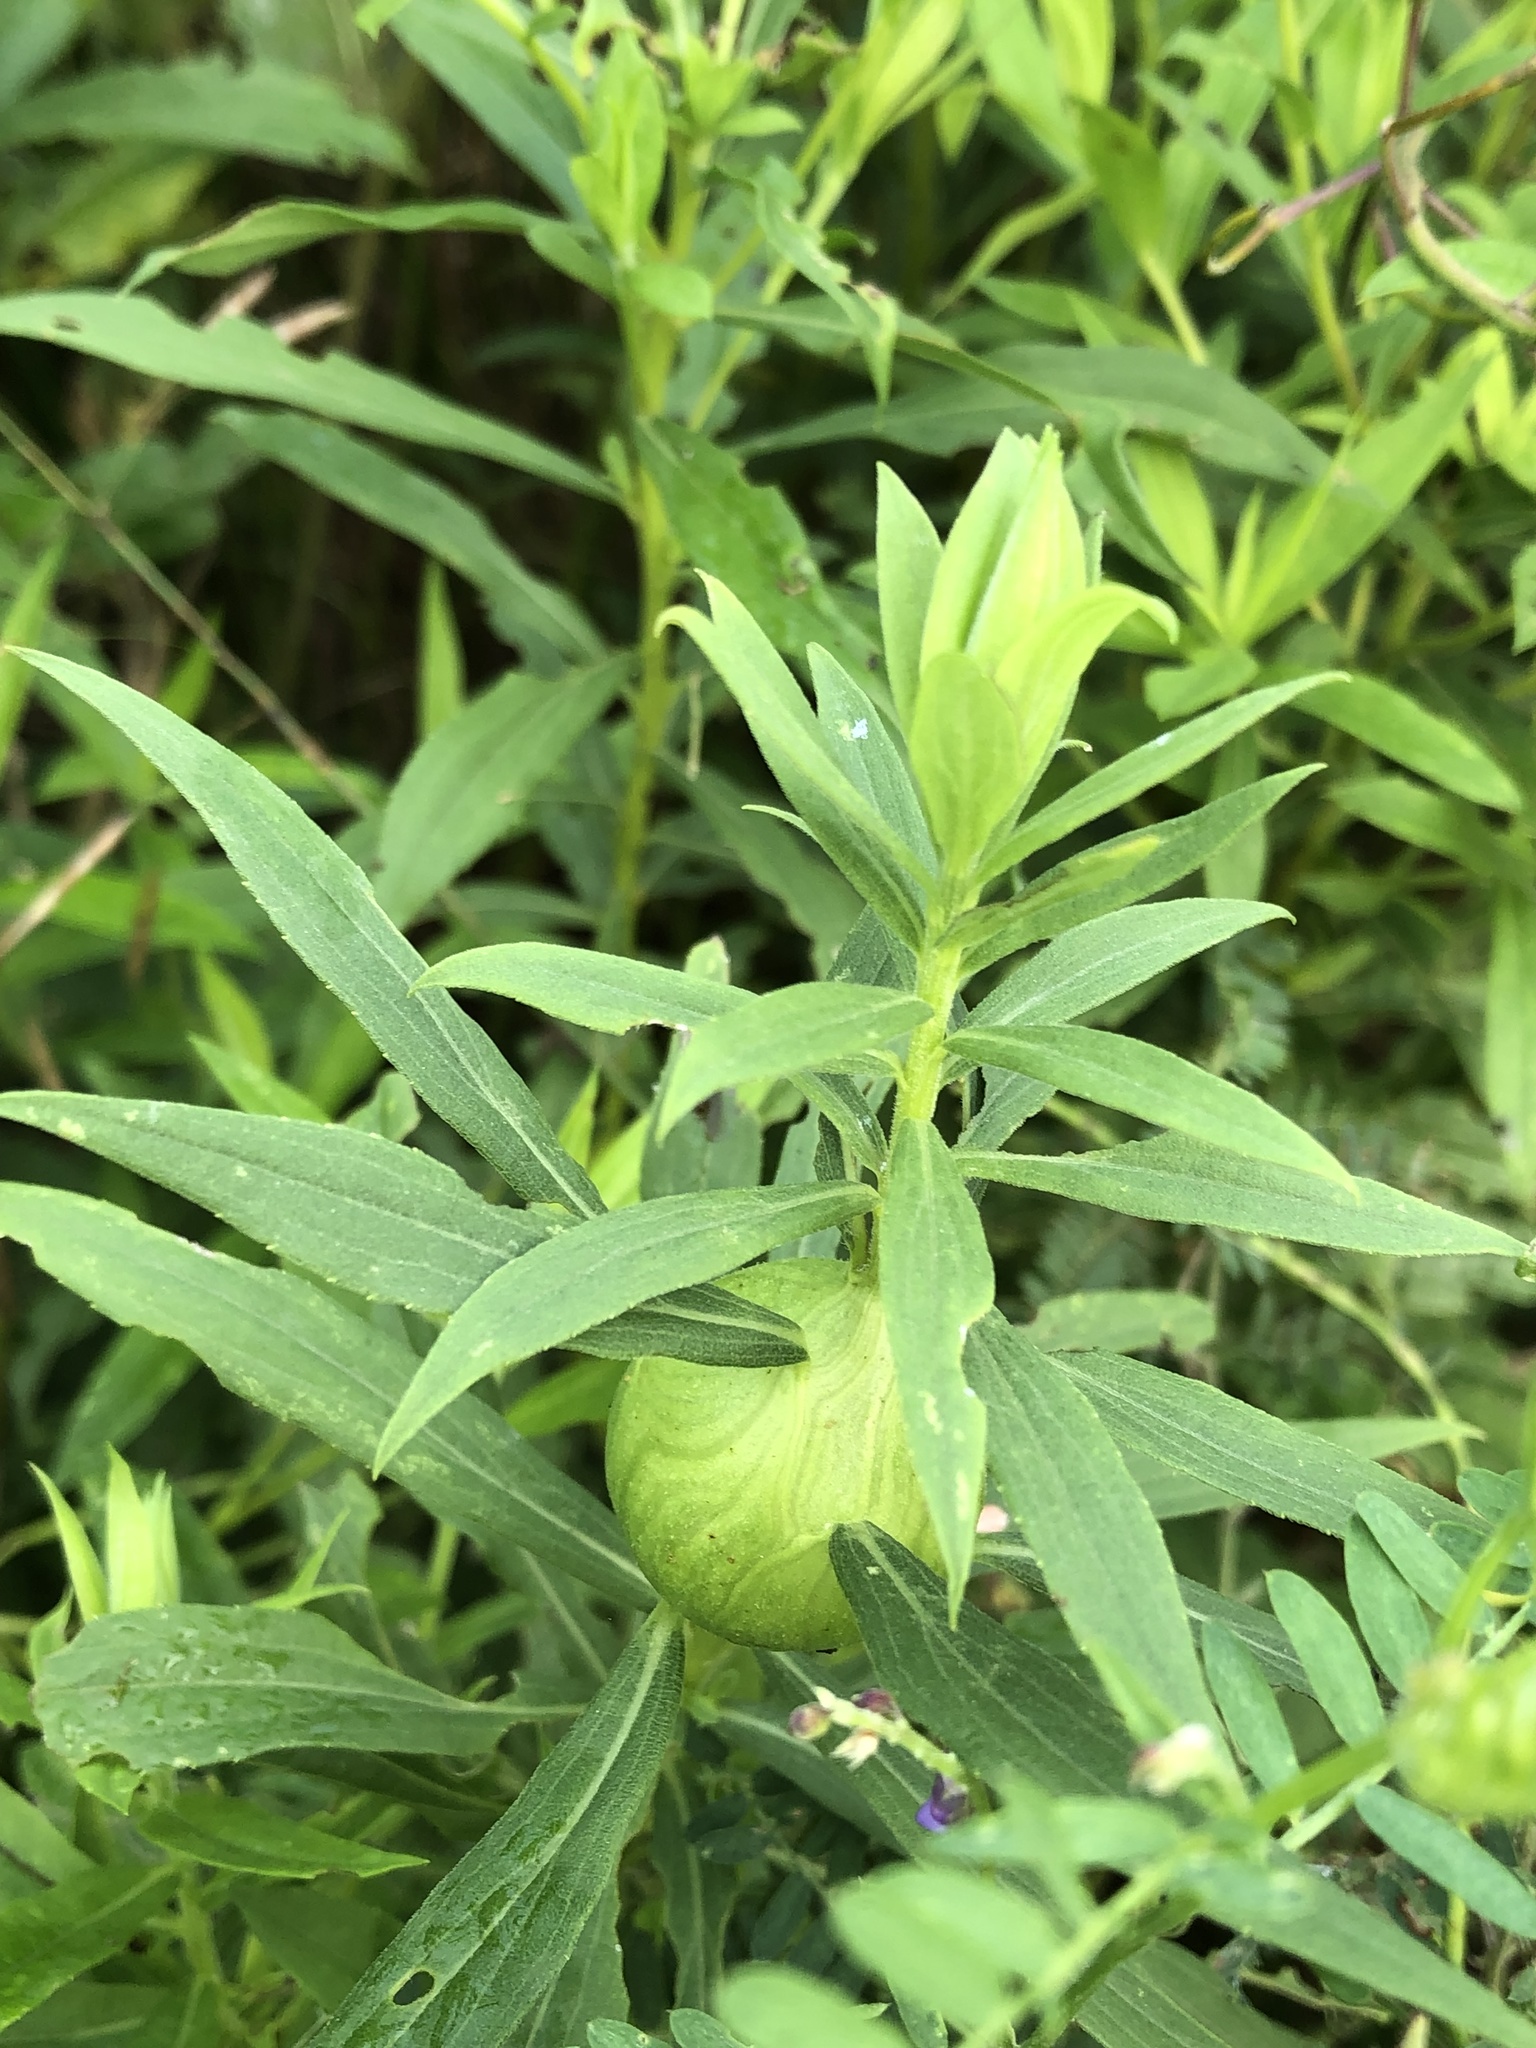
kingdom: Animalia
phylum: Arthropoda
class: Insecta
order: Diptera
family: Tephritidae
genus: Eurosta
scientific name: Eurosta solidaginis
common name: Goldenrod gall fly
